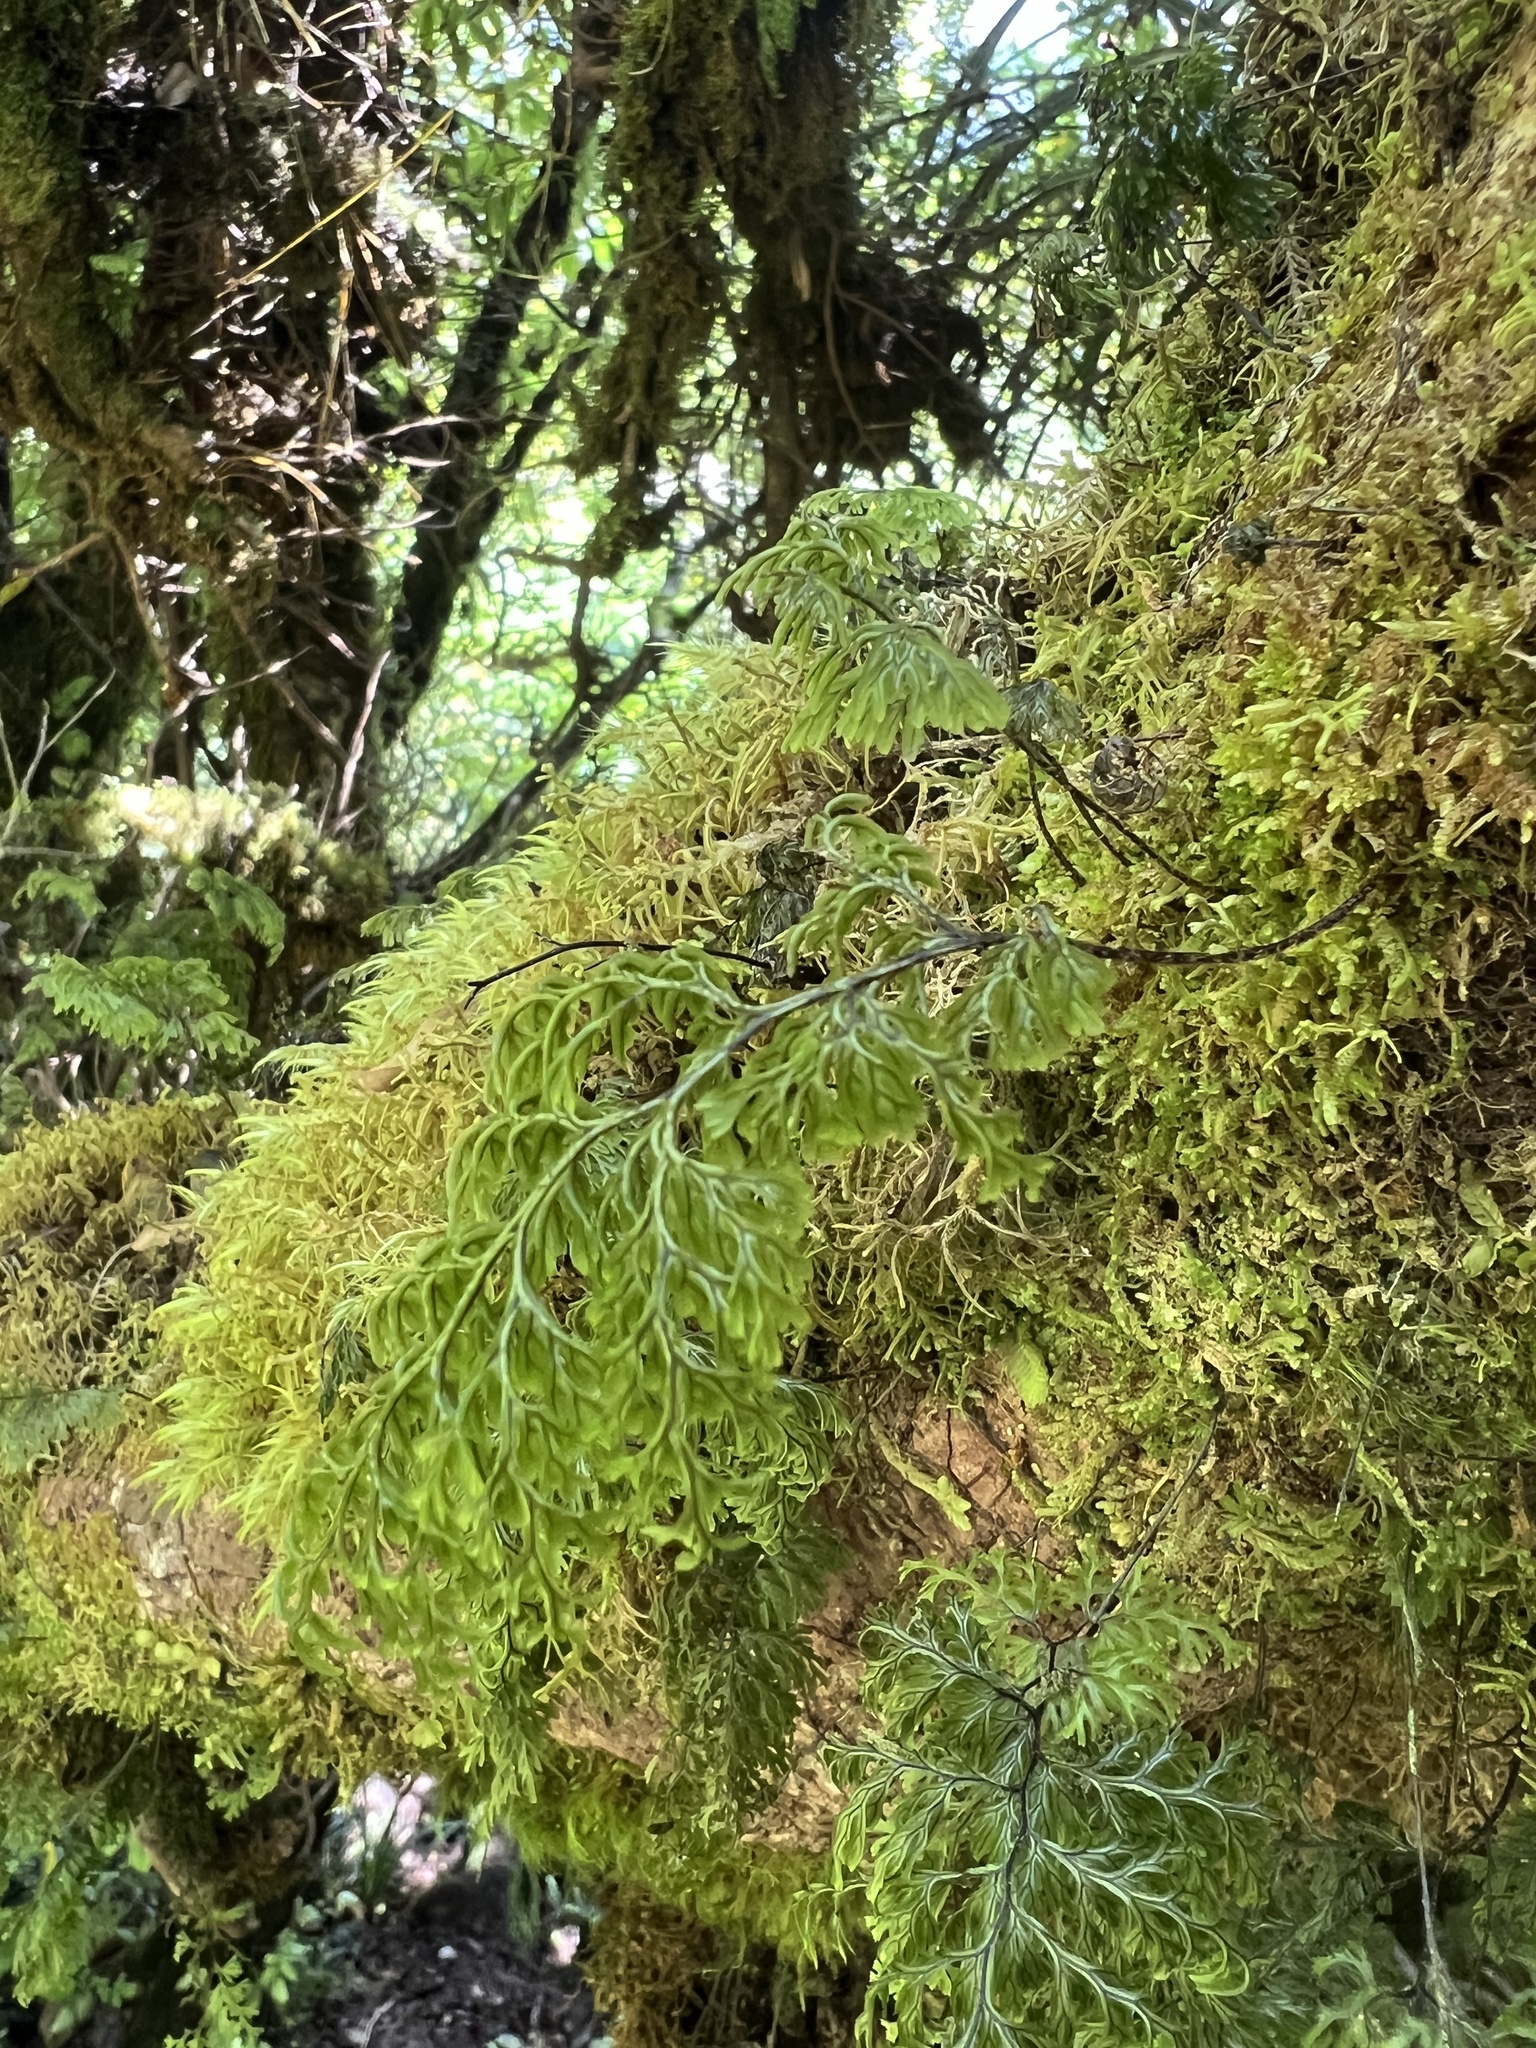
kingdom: Plantae
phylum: Tracheophyta
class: Polypodiopsida
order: Hymenophyllales
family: Hymenophyllaceae
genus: Hymenophyllum
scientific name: Hymenophyllum villosum
